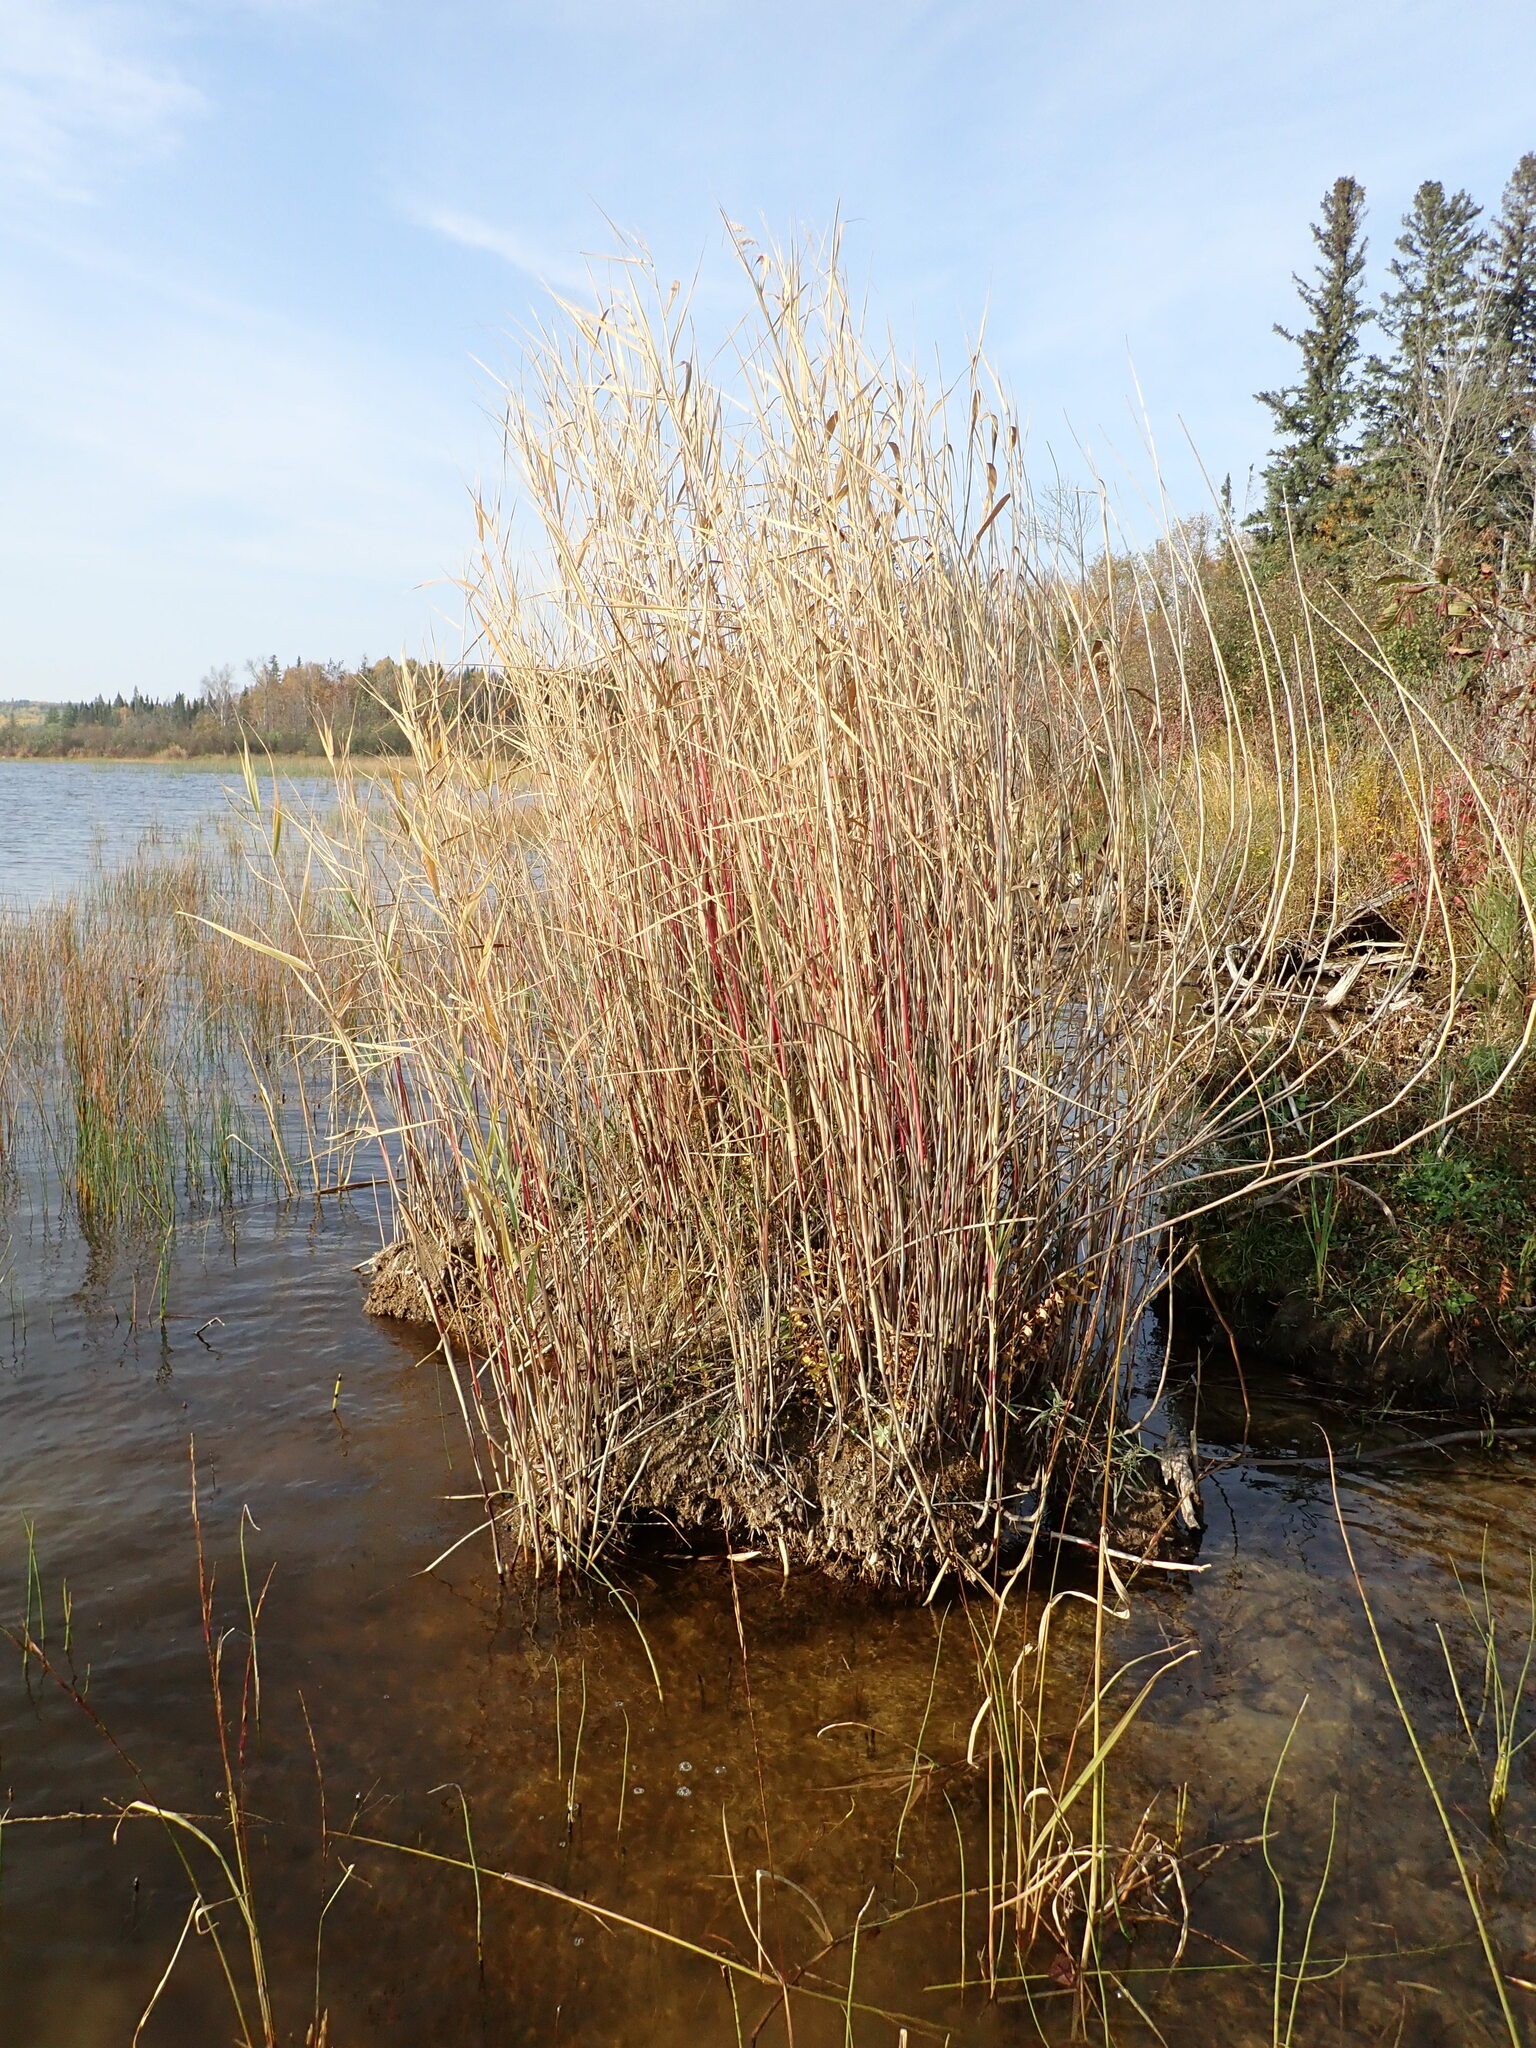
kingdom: Plantae
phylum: Tracheophyta
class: Liliopsida
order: Poales
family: Poaceae
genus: Phragmites
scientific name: Phragmites australis
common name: Common reed
